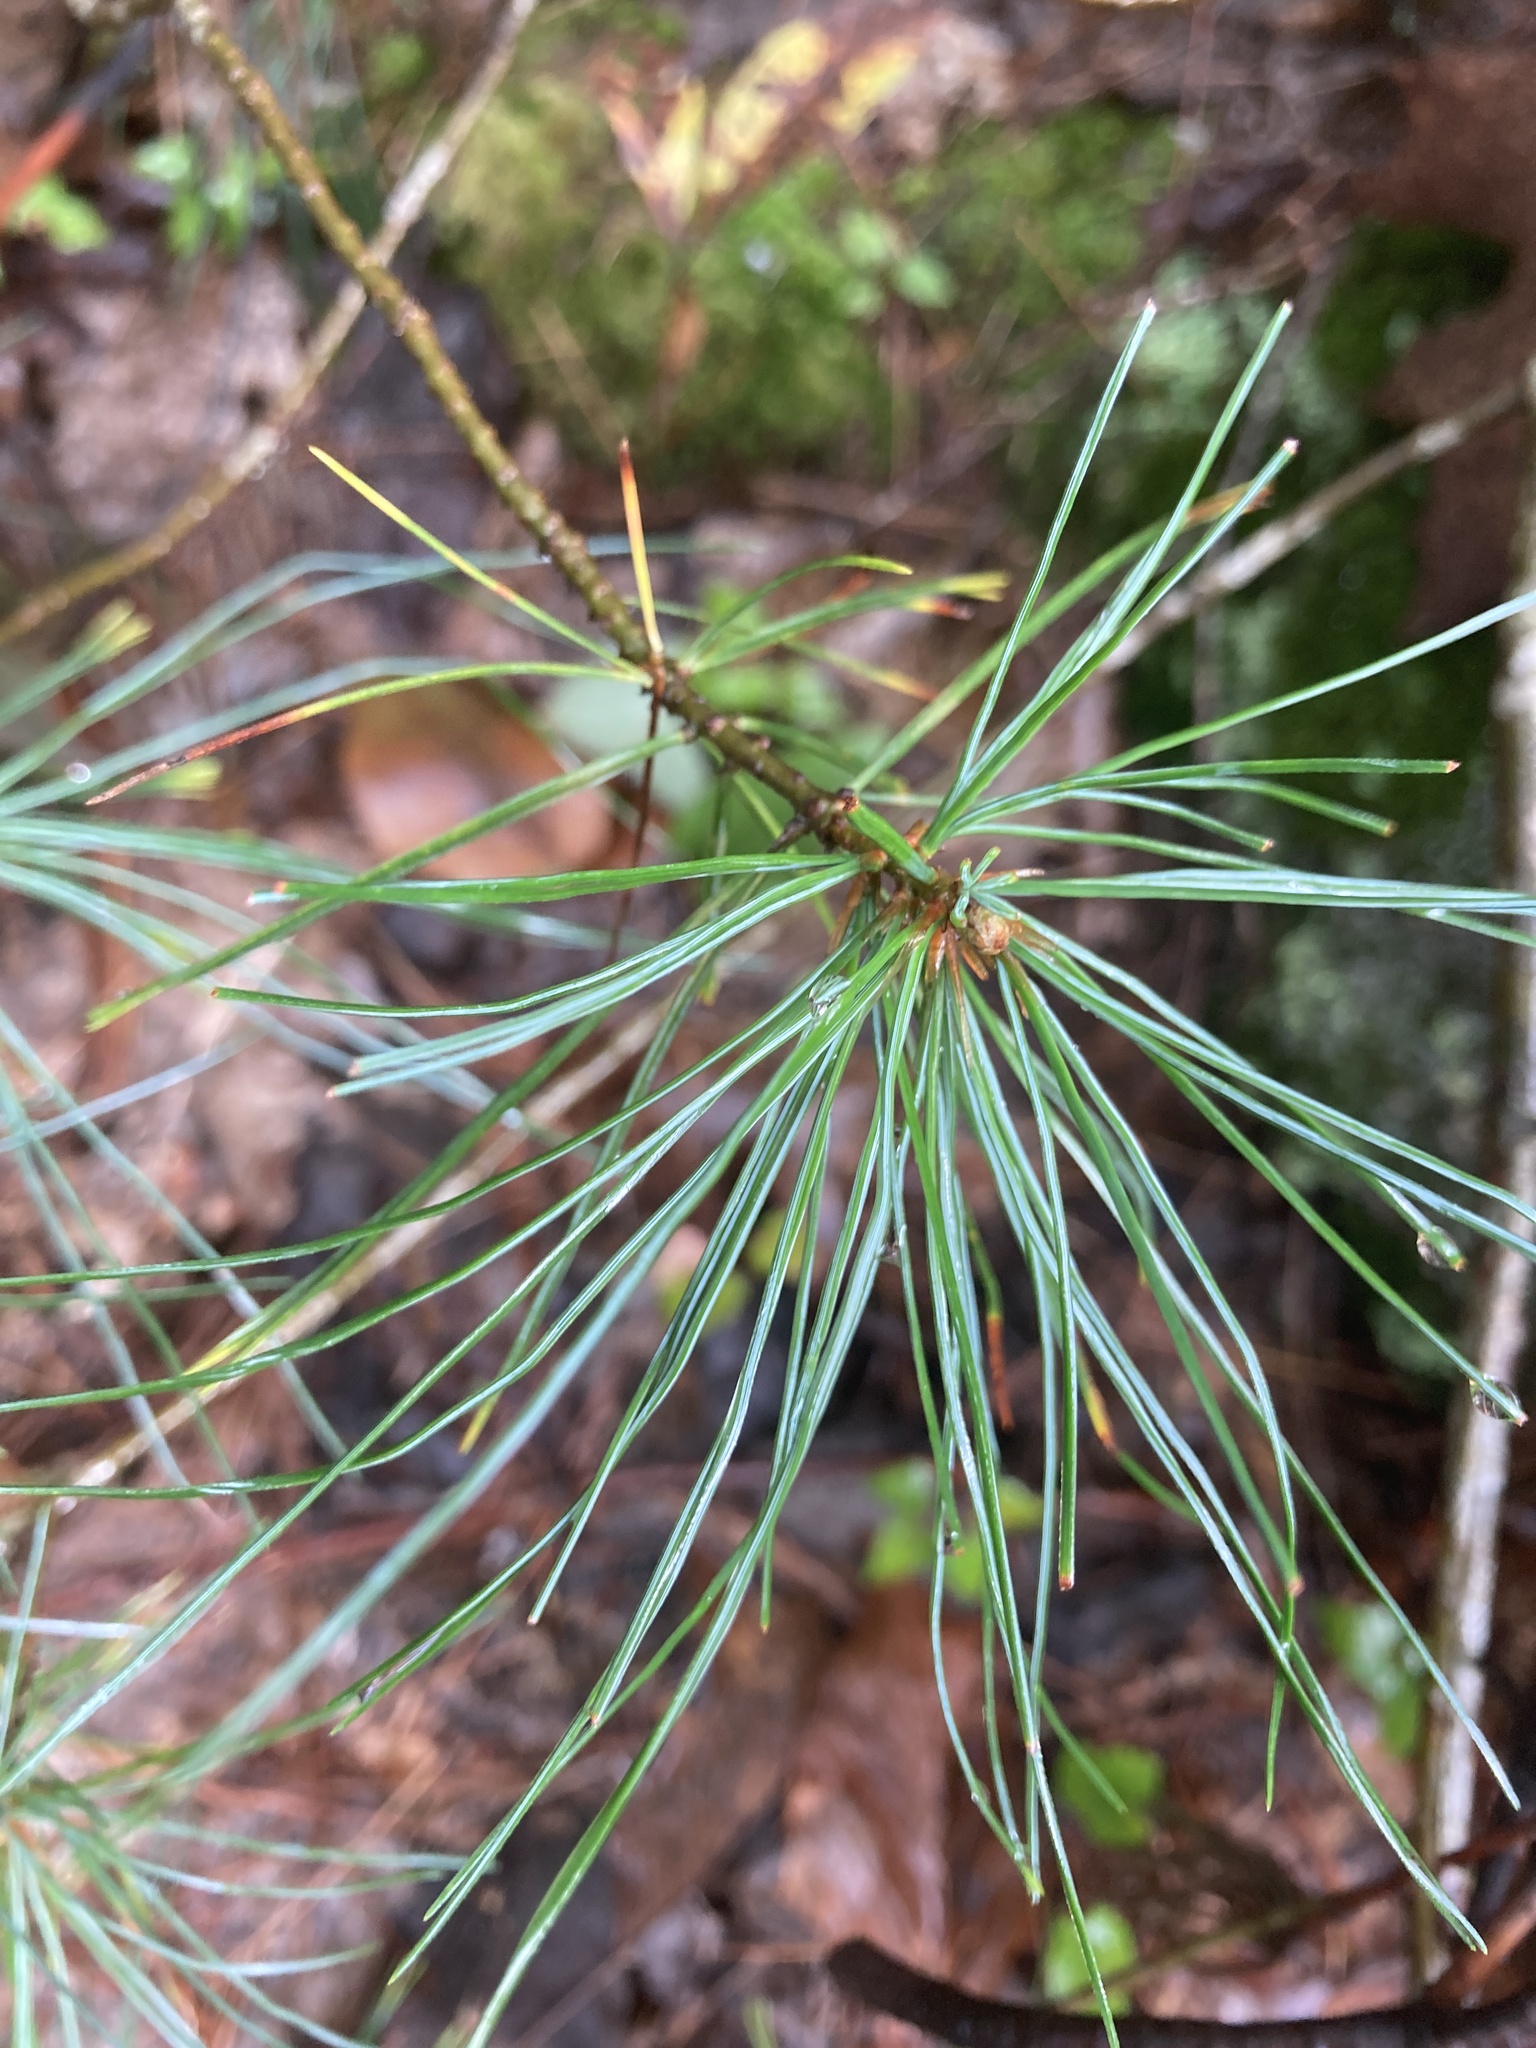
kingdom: Plantae
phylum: Tracheophyta
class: Pinopsida
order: Pinales
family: Pinaceae
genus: Pinus
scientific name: Pinus strobus
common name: Weymouth pine
